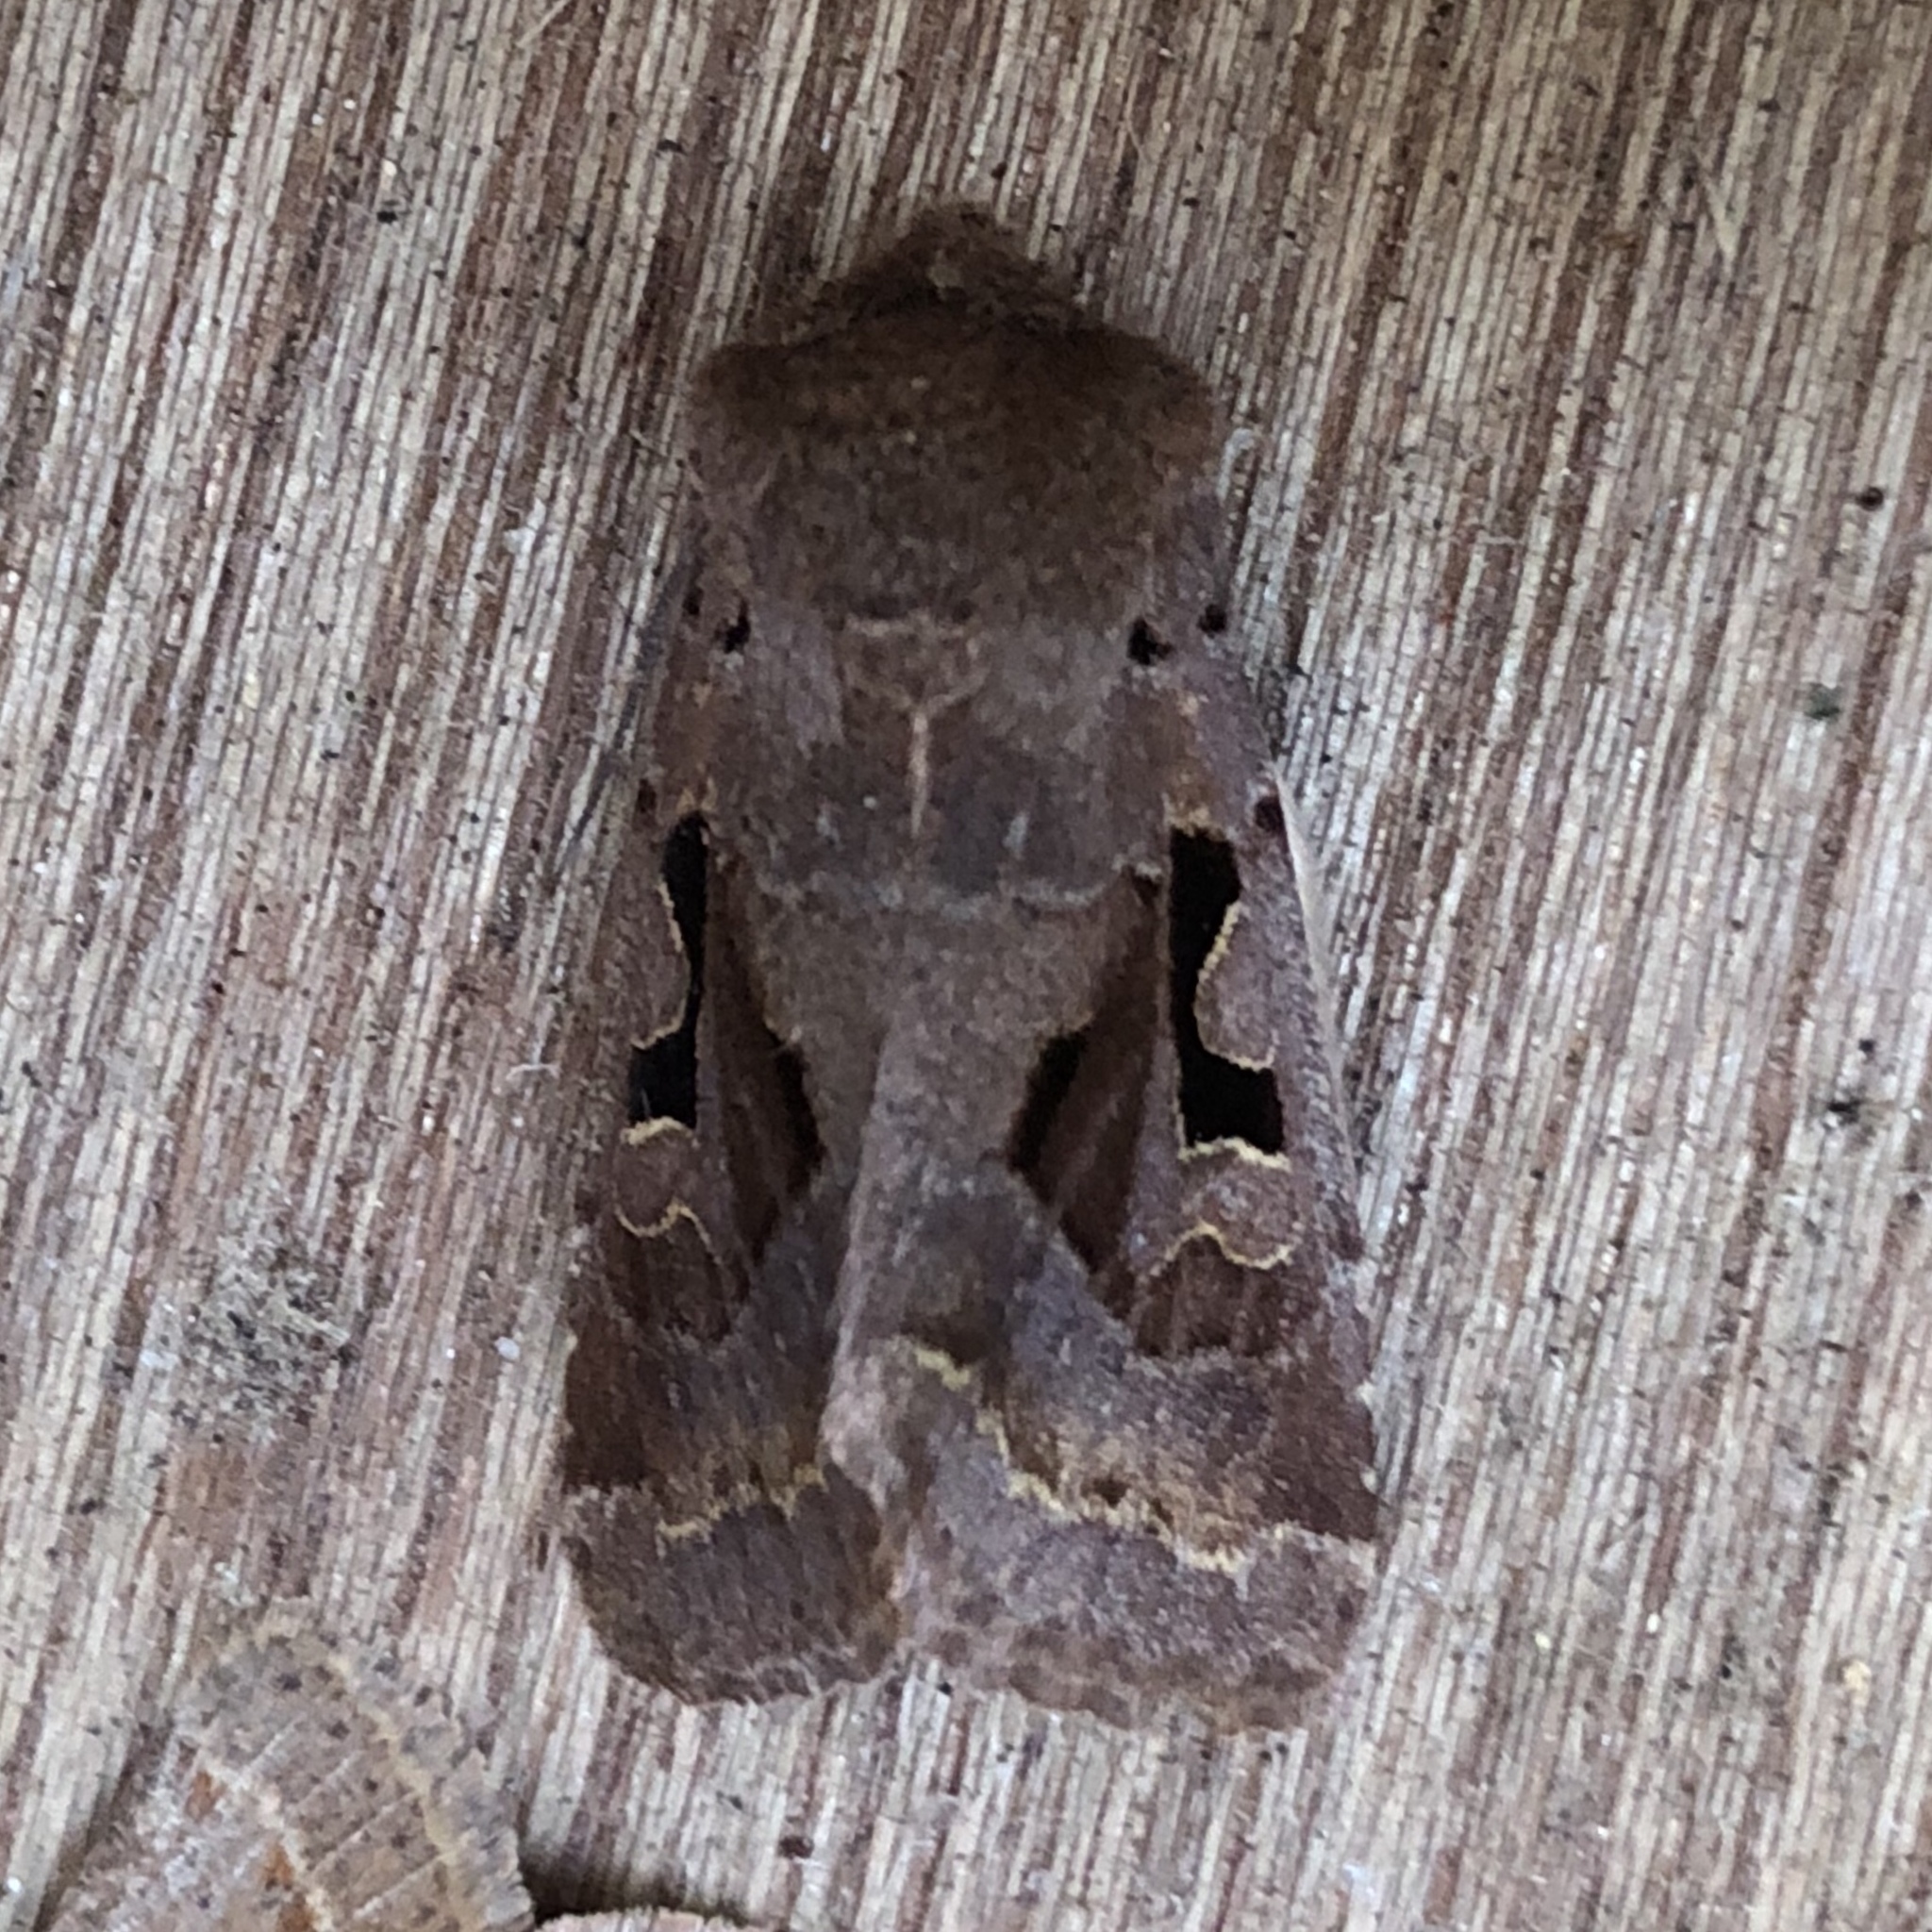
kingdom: Animalia
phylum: Arthropoda
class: Insecta
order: Lepidoptera
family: Noctuidae
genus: Orthosia
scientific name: Orthosia gothica
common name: Hebrew character
